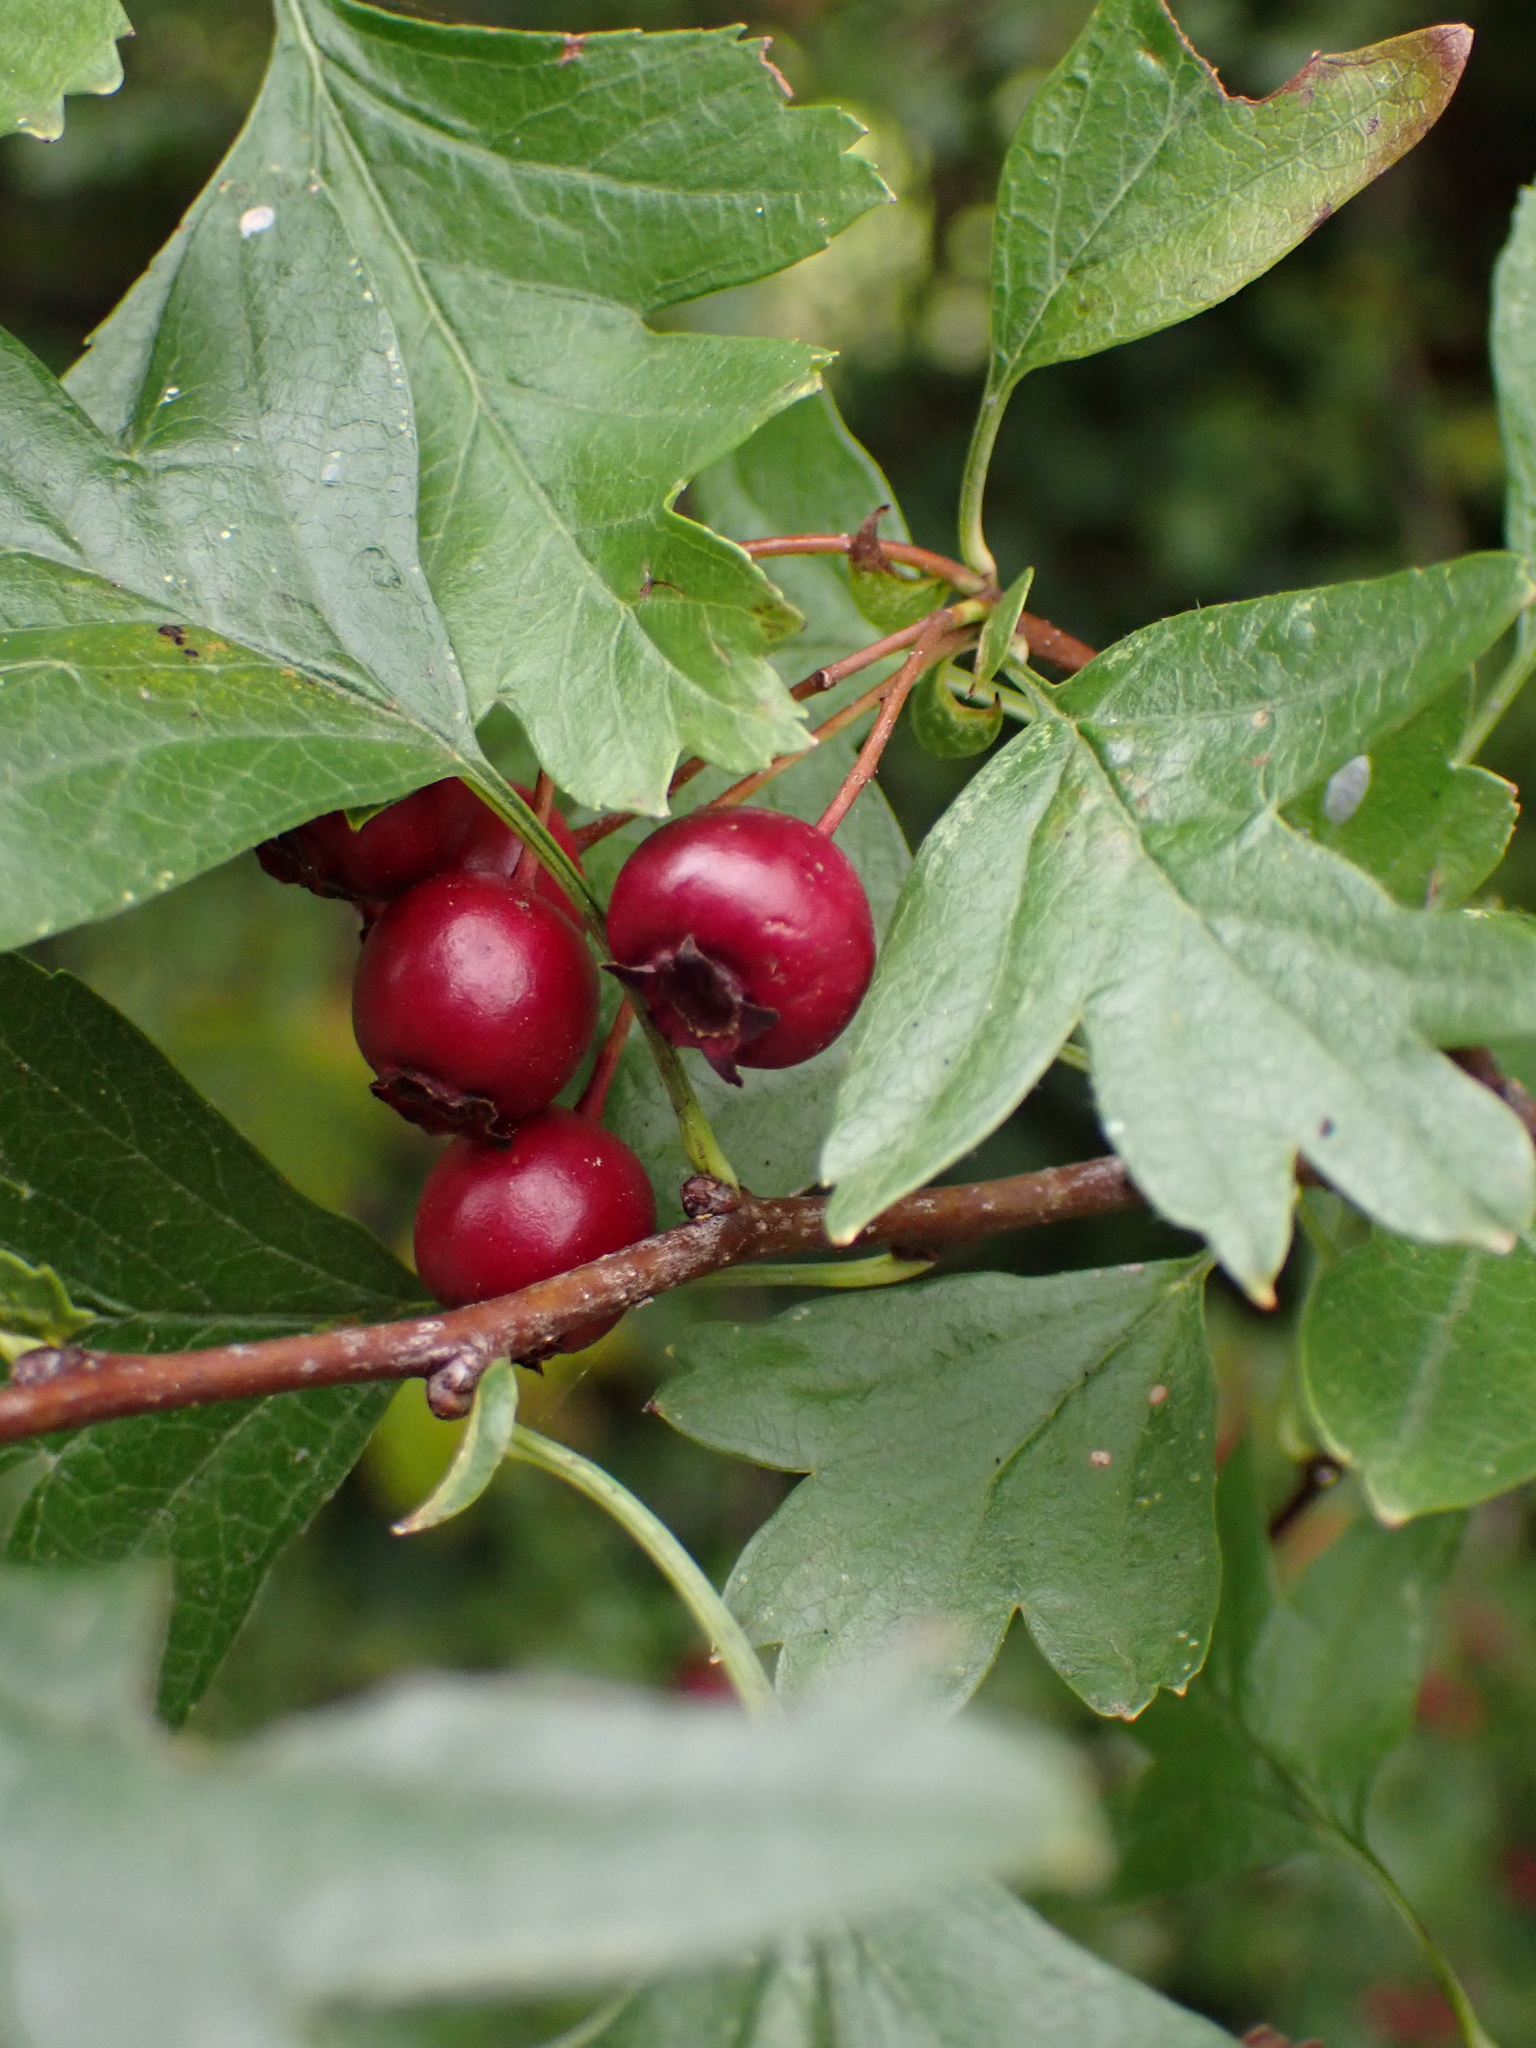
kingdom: Plantae
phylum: Tracheophyta
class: Magnoliopsida
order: Rosales
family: Rosaceae
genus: Crataegus
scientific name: Crataegus monogyna
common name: Hawthorn
